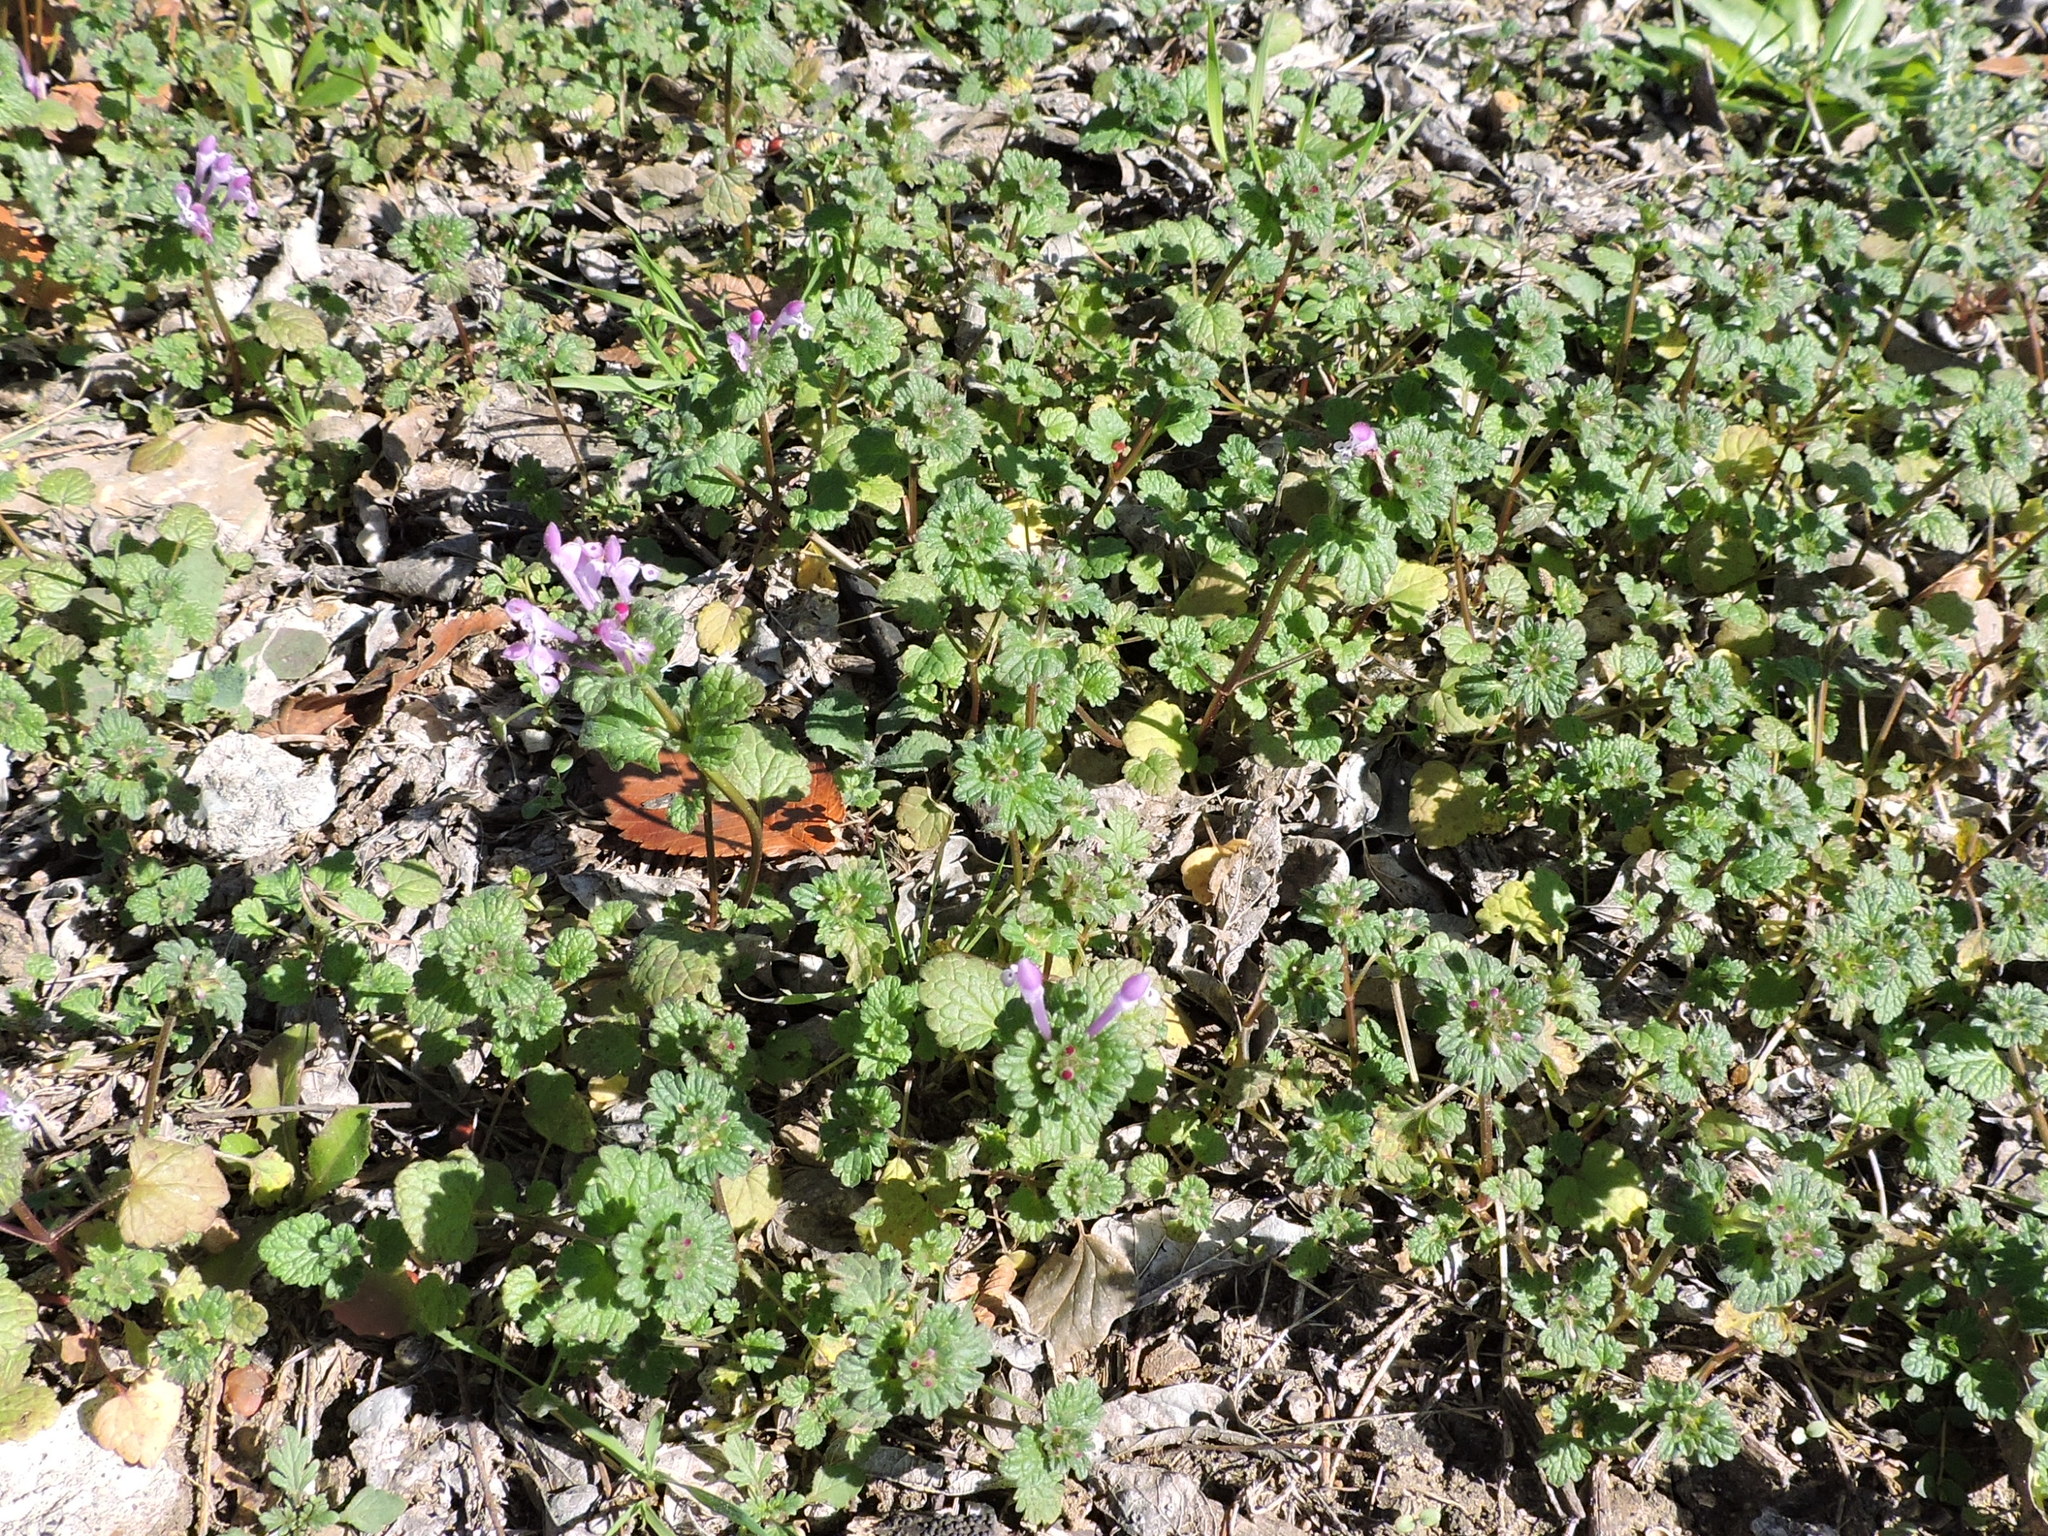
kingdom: Plantae
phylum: Tracheophyta
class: Magnoliopsida
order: Lamiales
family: Lamiaceae
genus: Lamium
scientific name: Lamium amplexicaule
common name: Henbit dead-nettle
